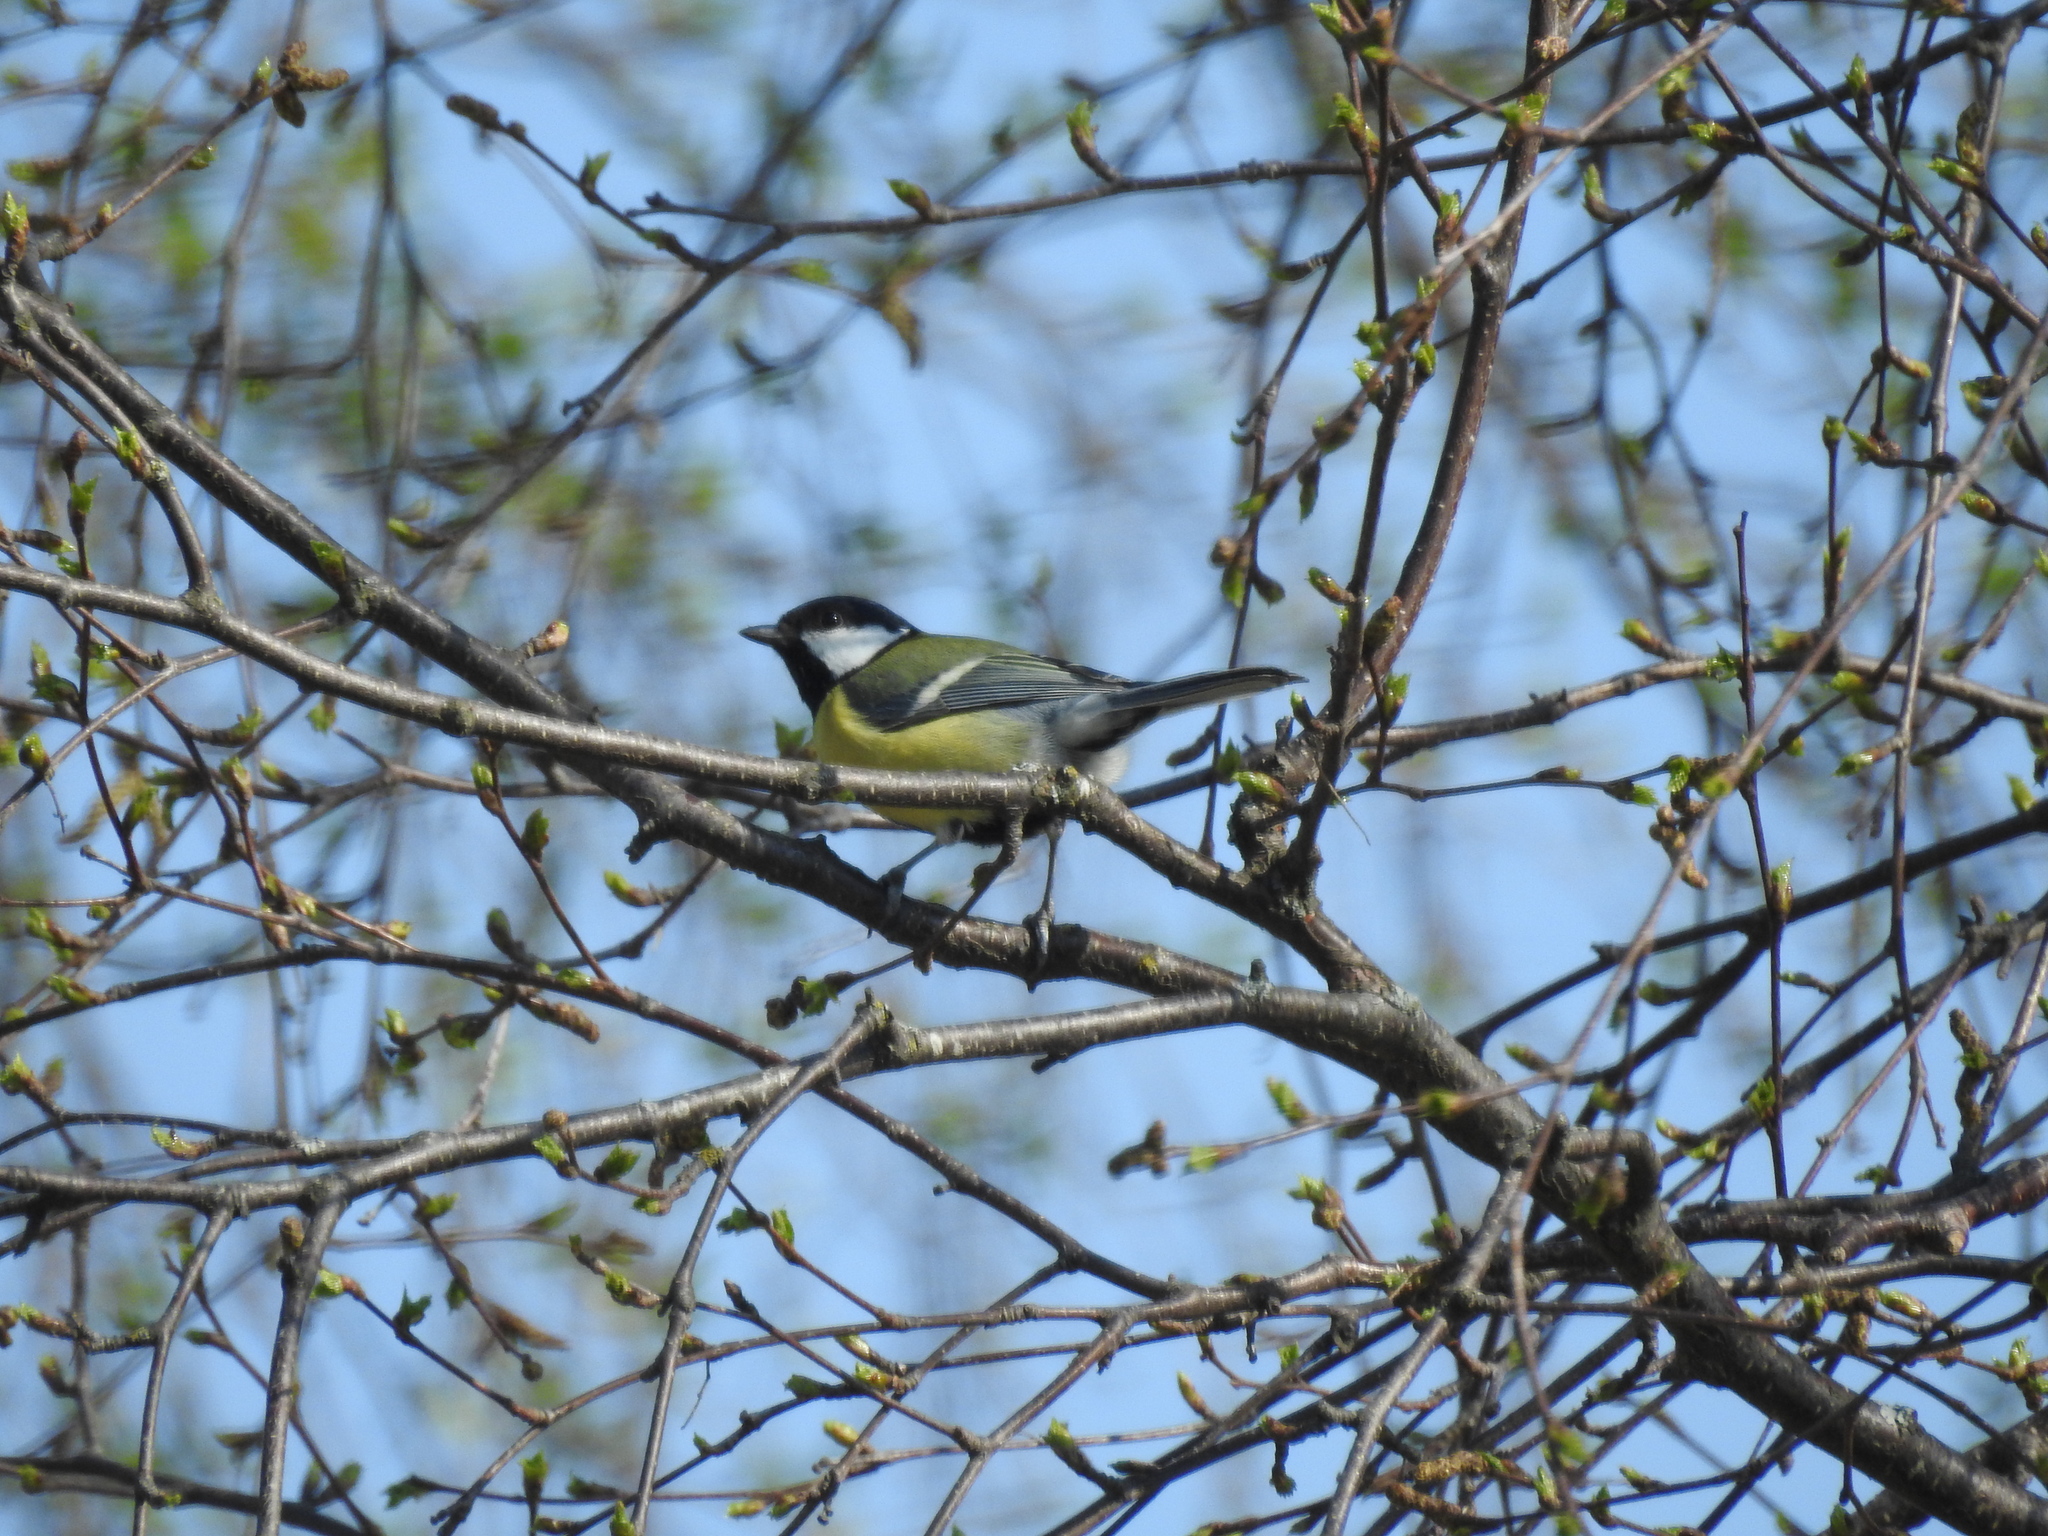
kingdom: Animalia
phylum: Chordata
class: Aves
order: Passeriformes
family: Paridae
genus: Parus
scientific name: Parus major
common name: Great tit
